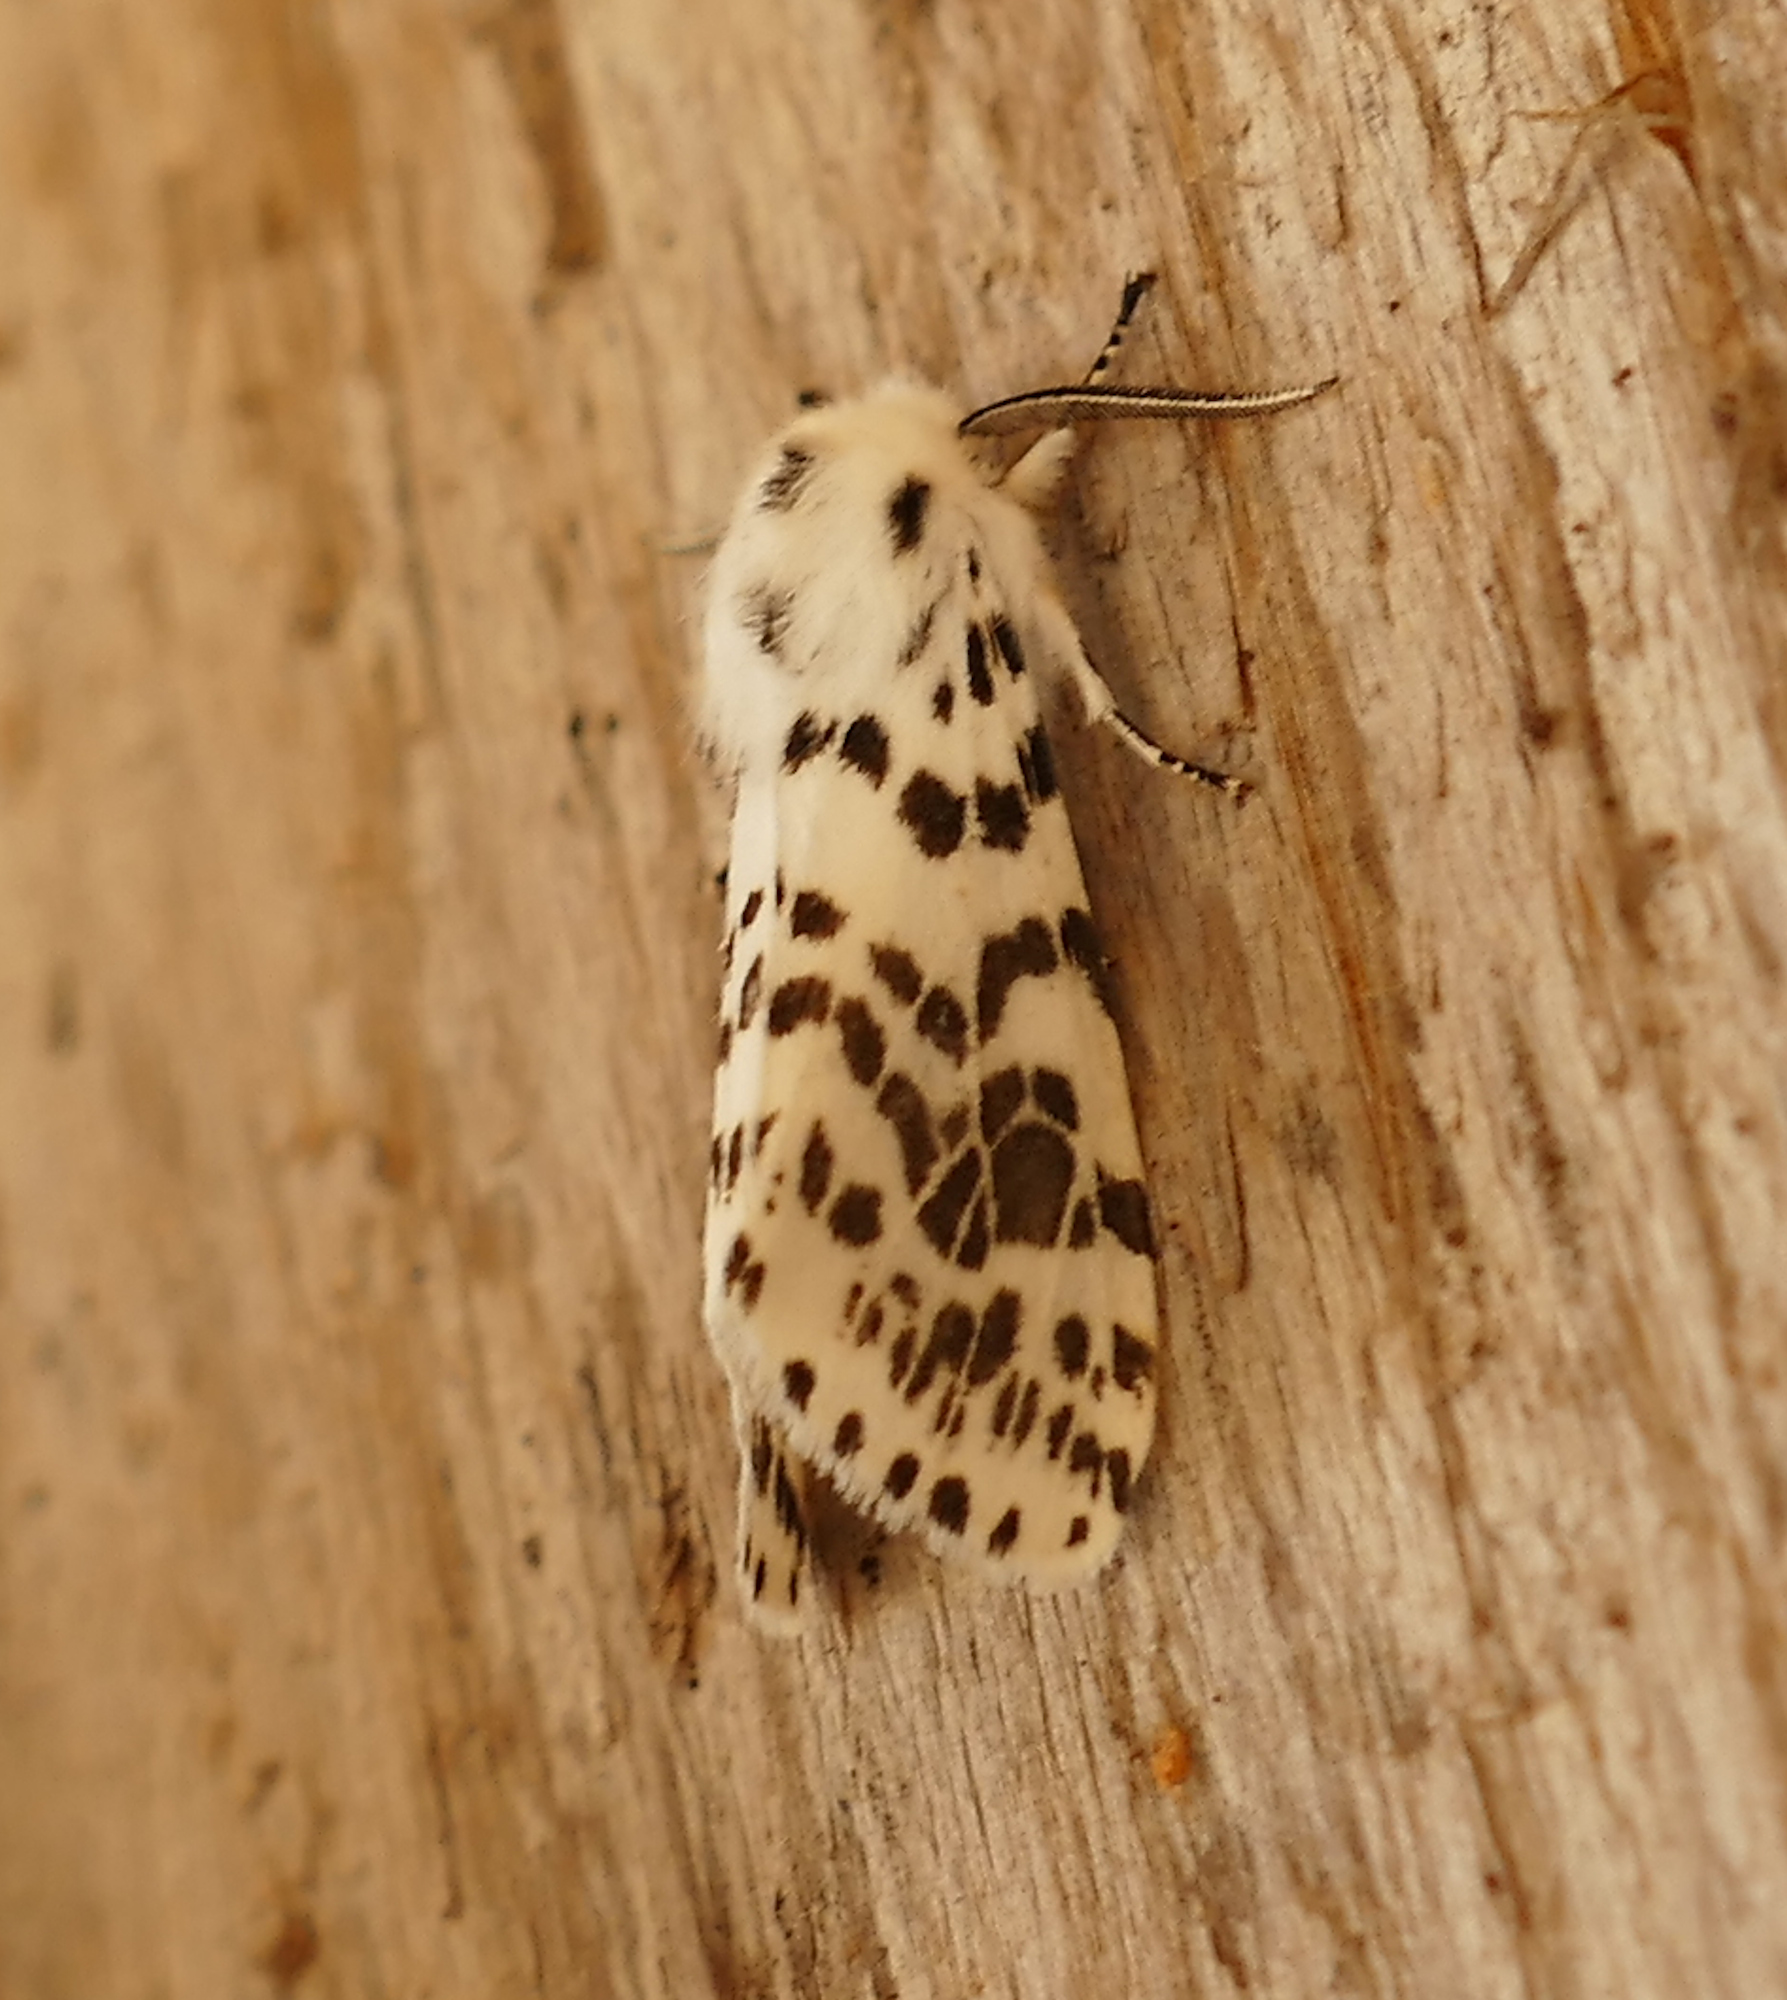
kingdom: Animalia
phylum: Arthropoda
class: Insecta
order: Lepidoptera
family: Erebidae
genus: Hyphantria
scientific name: Hyphantria cunea
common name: American white moth
